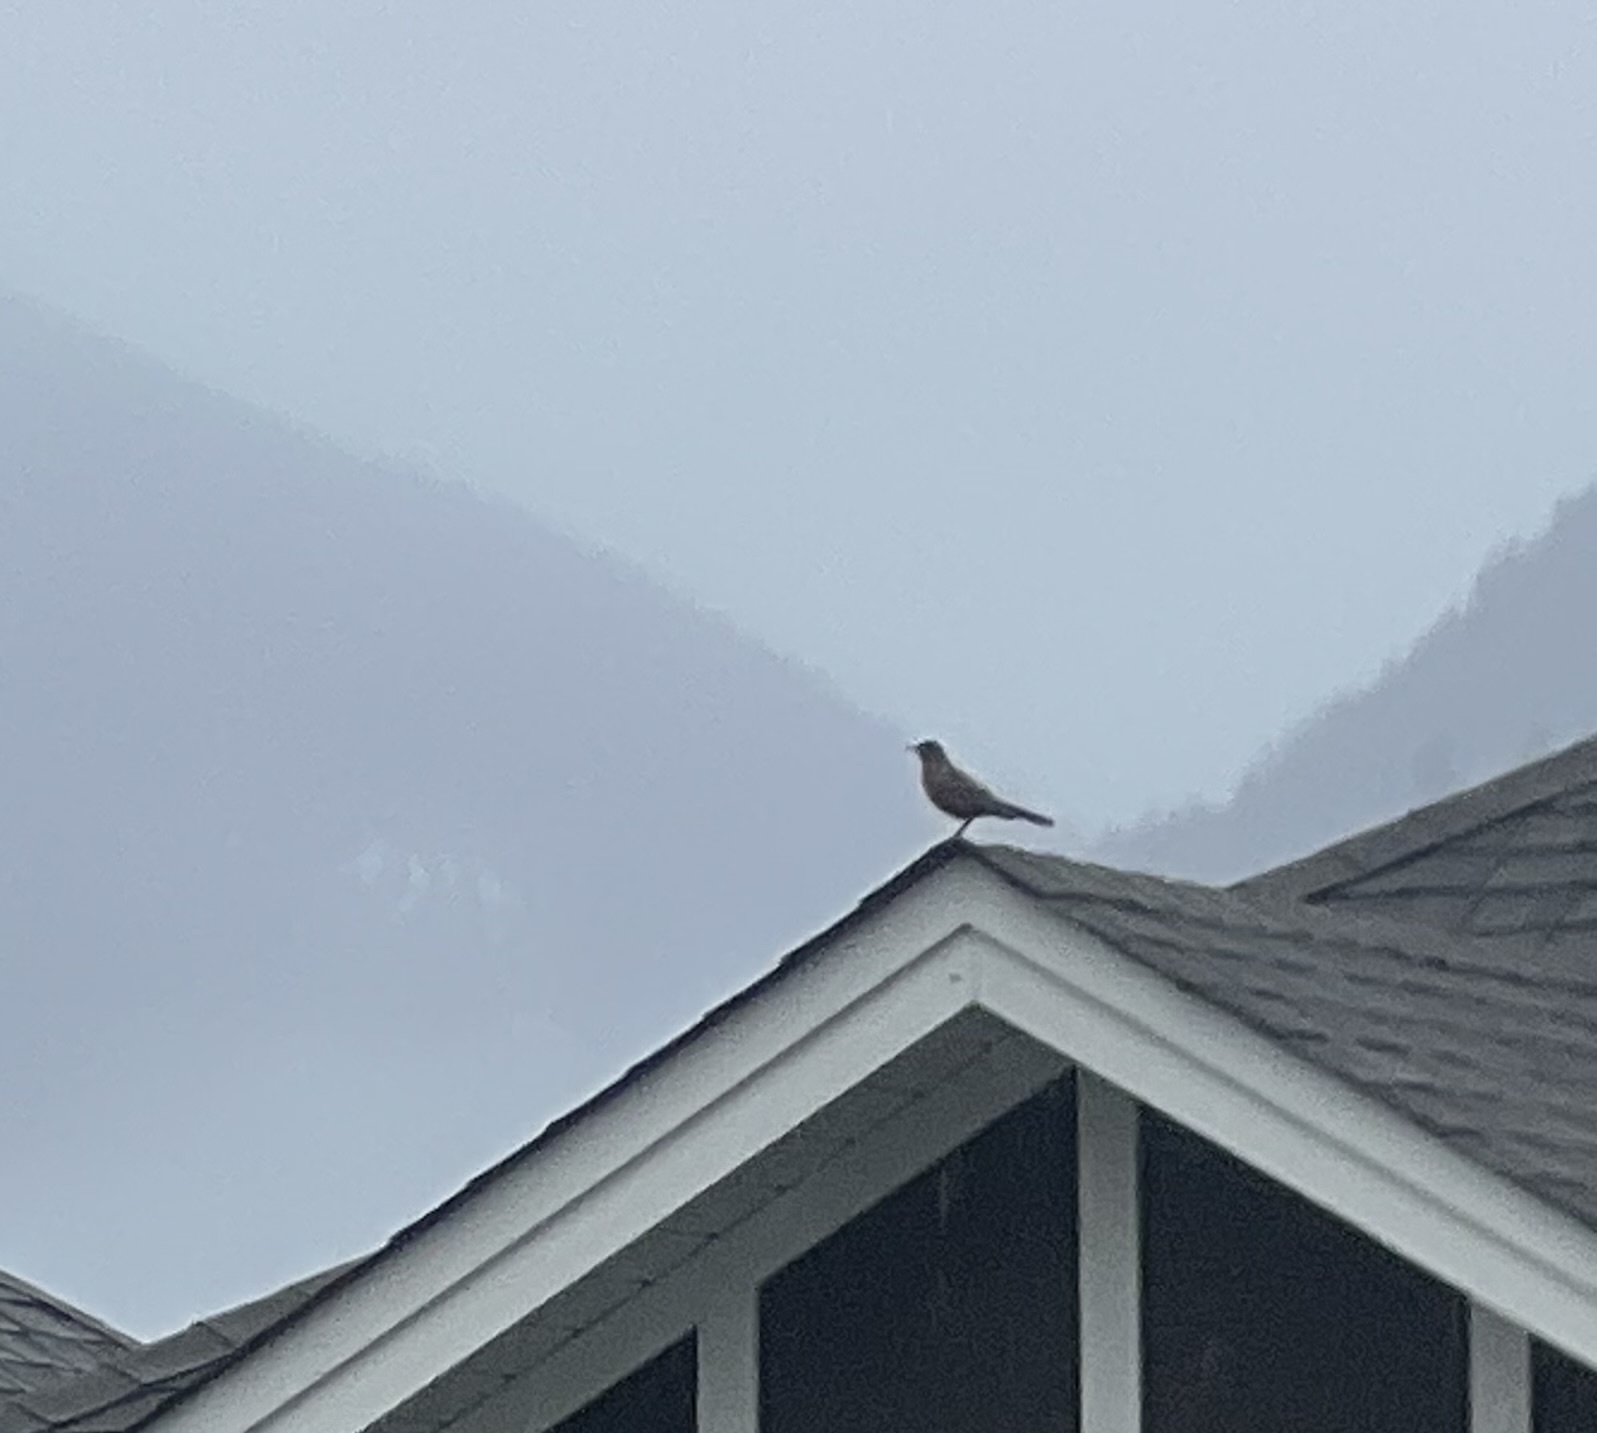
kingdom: Animalia
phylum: Chordata
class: Aves
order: Passeriformes
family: Turdidae
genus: Turdus
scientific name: Turdus migratorius
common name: American robin
